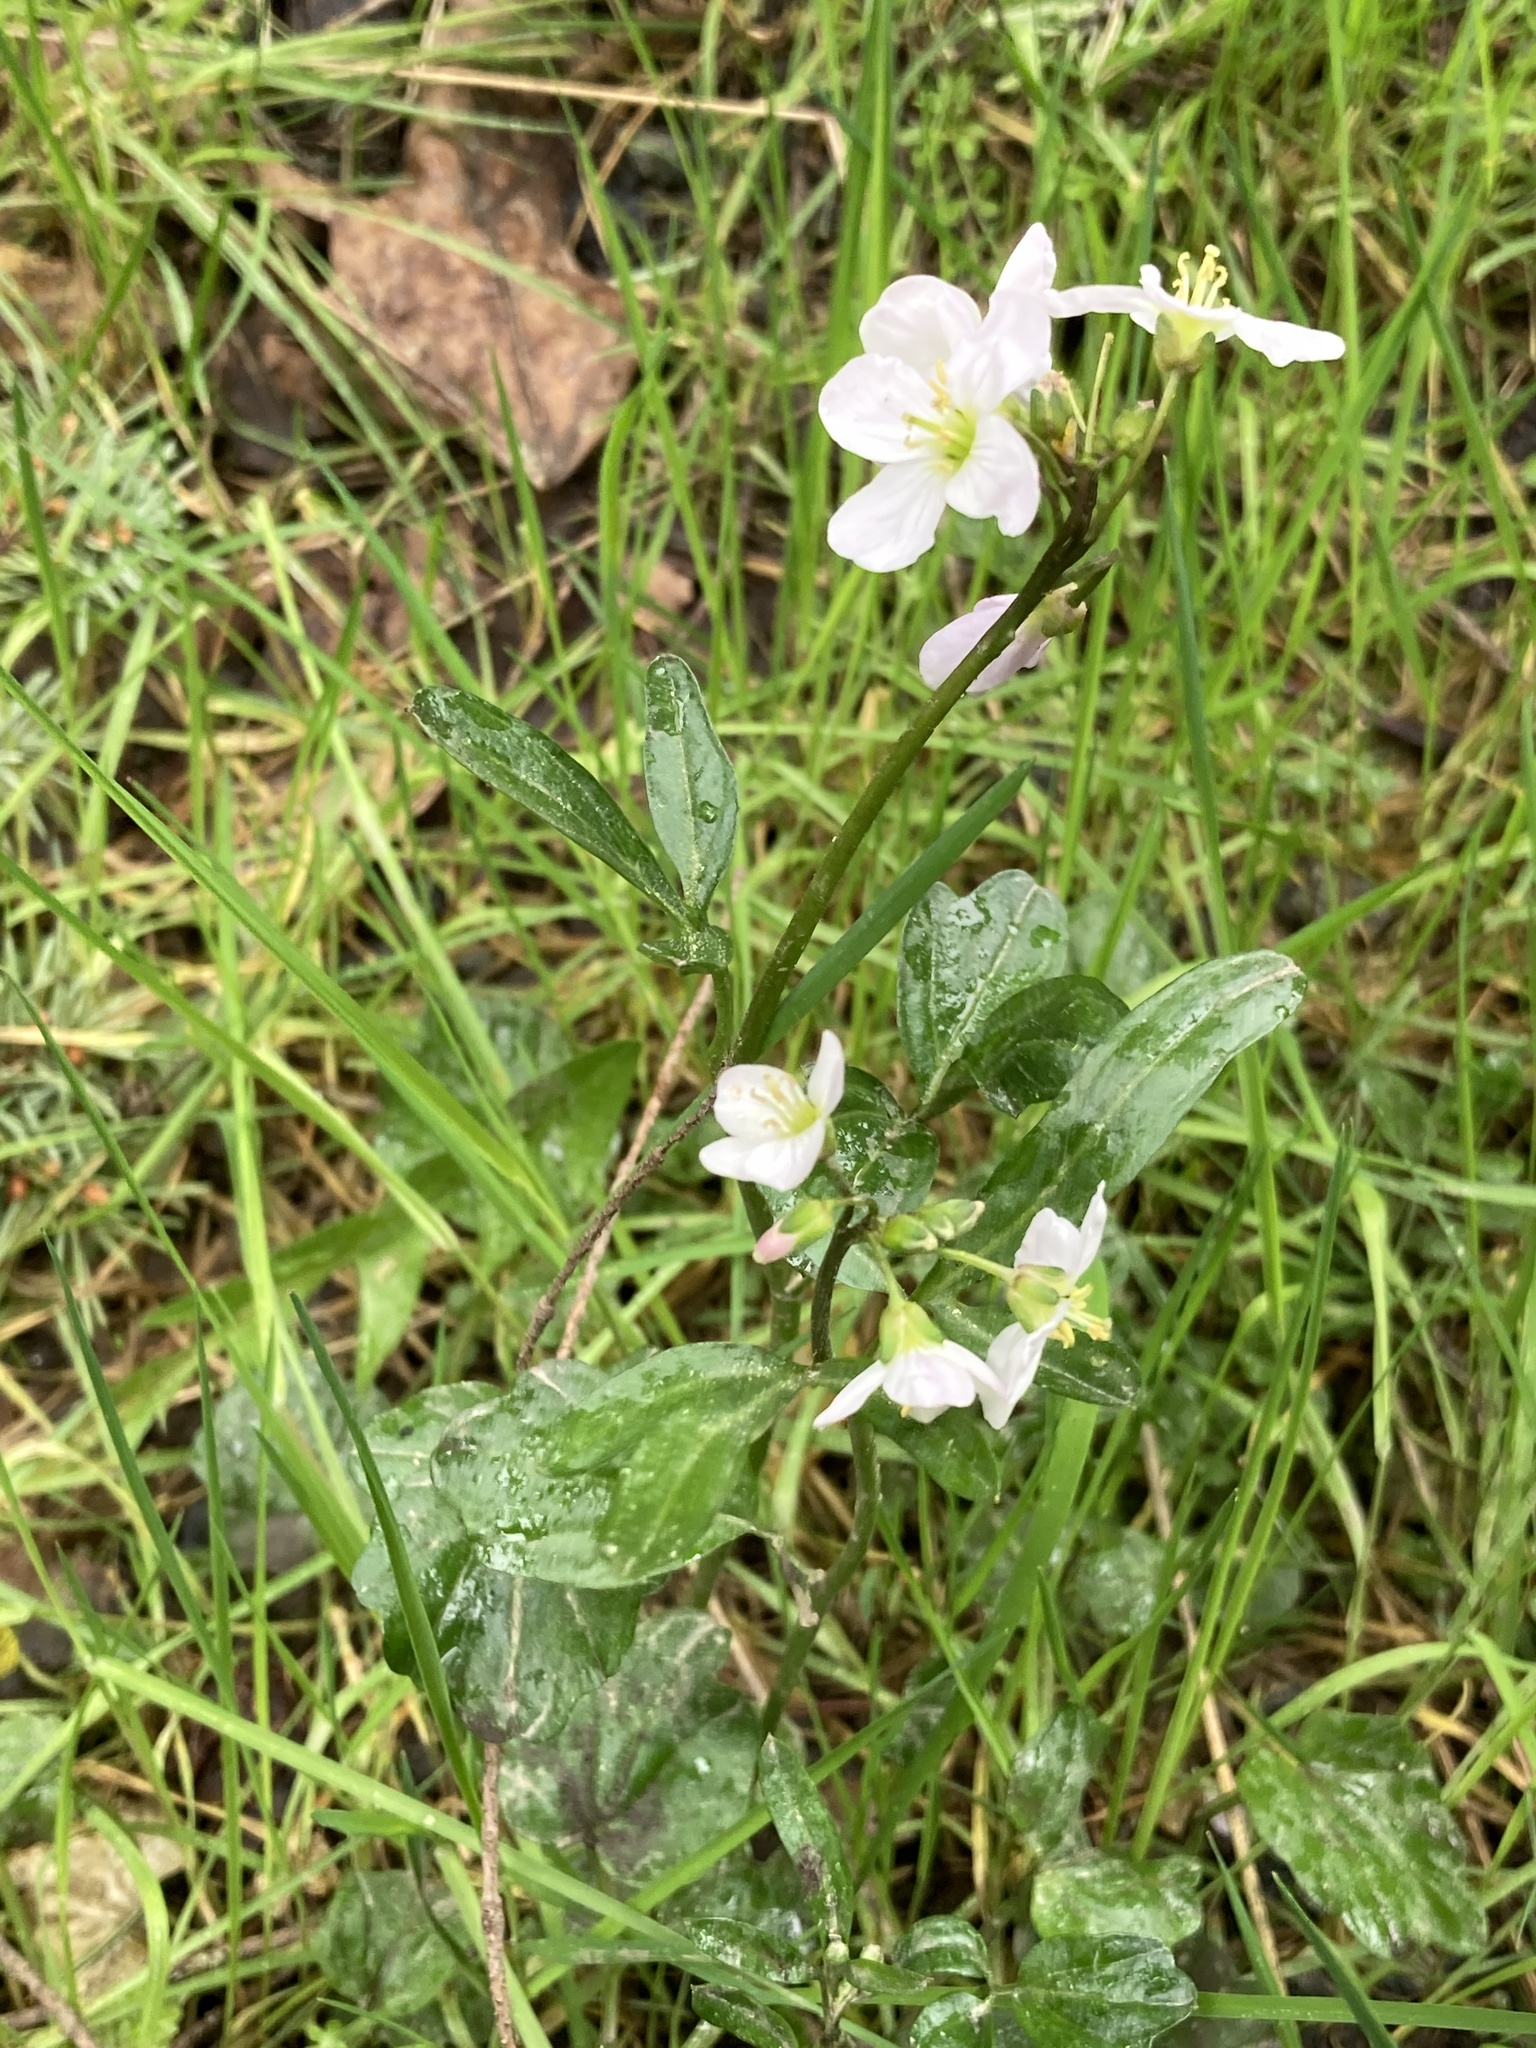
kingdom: Plantae
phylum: Tracheophyta
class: Magnoliopsida
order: Brassicales
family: Brassicaceae
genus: Cardamine
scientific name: Cardamine nuttallii
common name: Nuttall's toothwort
